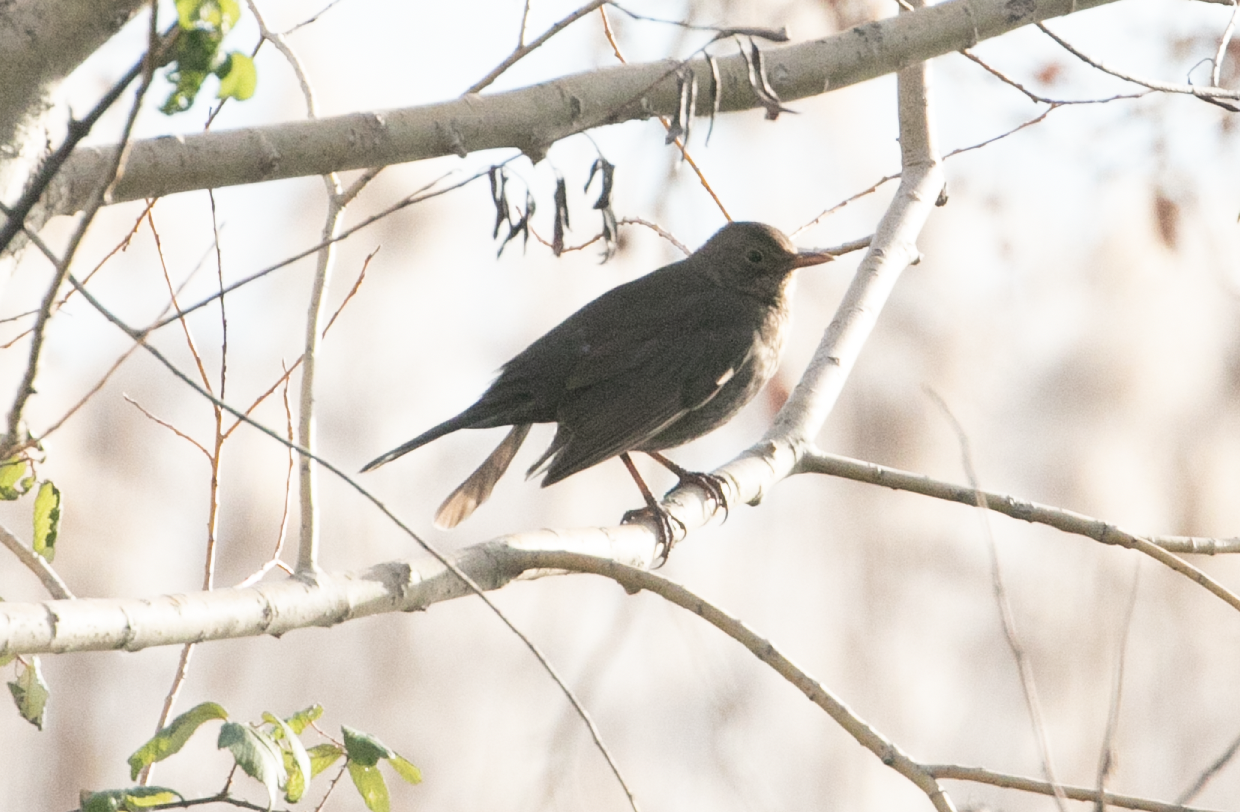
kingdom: Animalia
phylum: Chordata
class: Aves
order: Passeriformes
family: Turdidae
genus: Turdus
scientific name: Turdus merula
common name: Common blackbird
